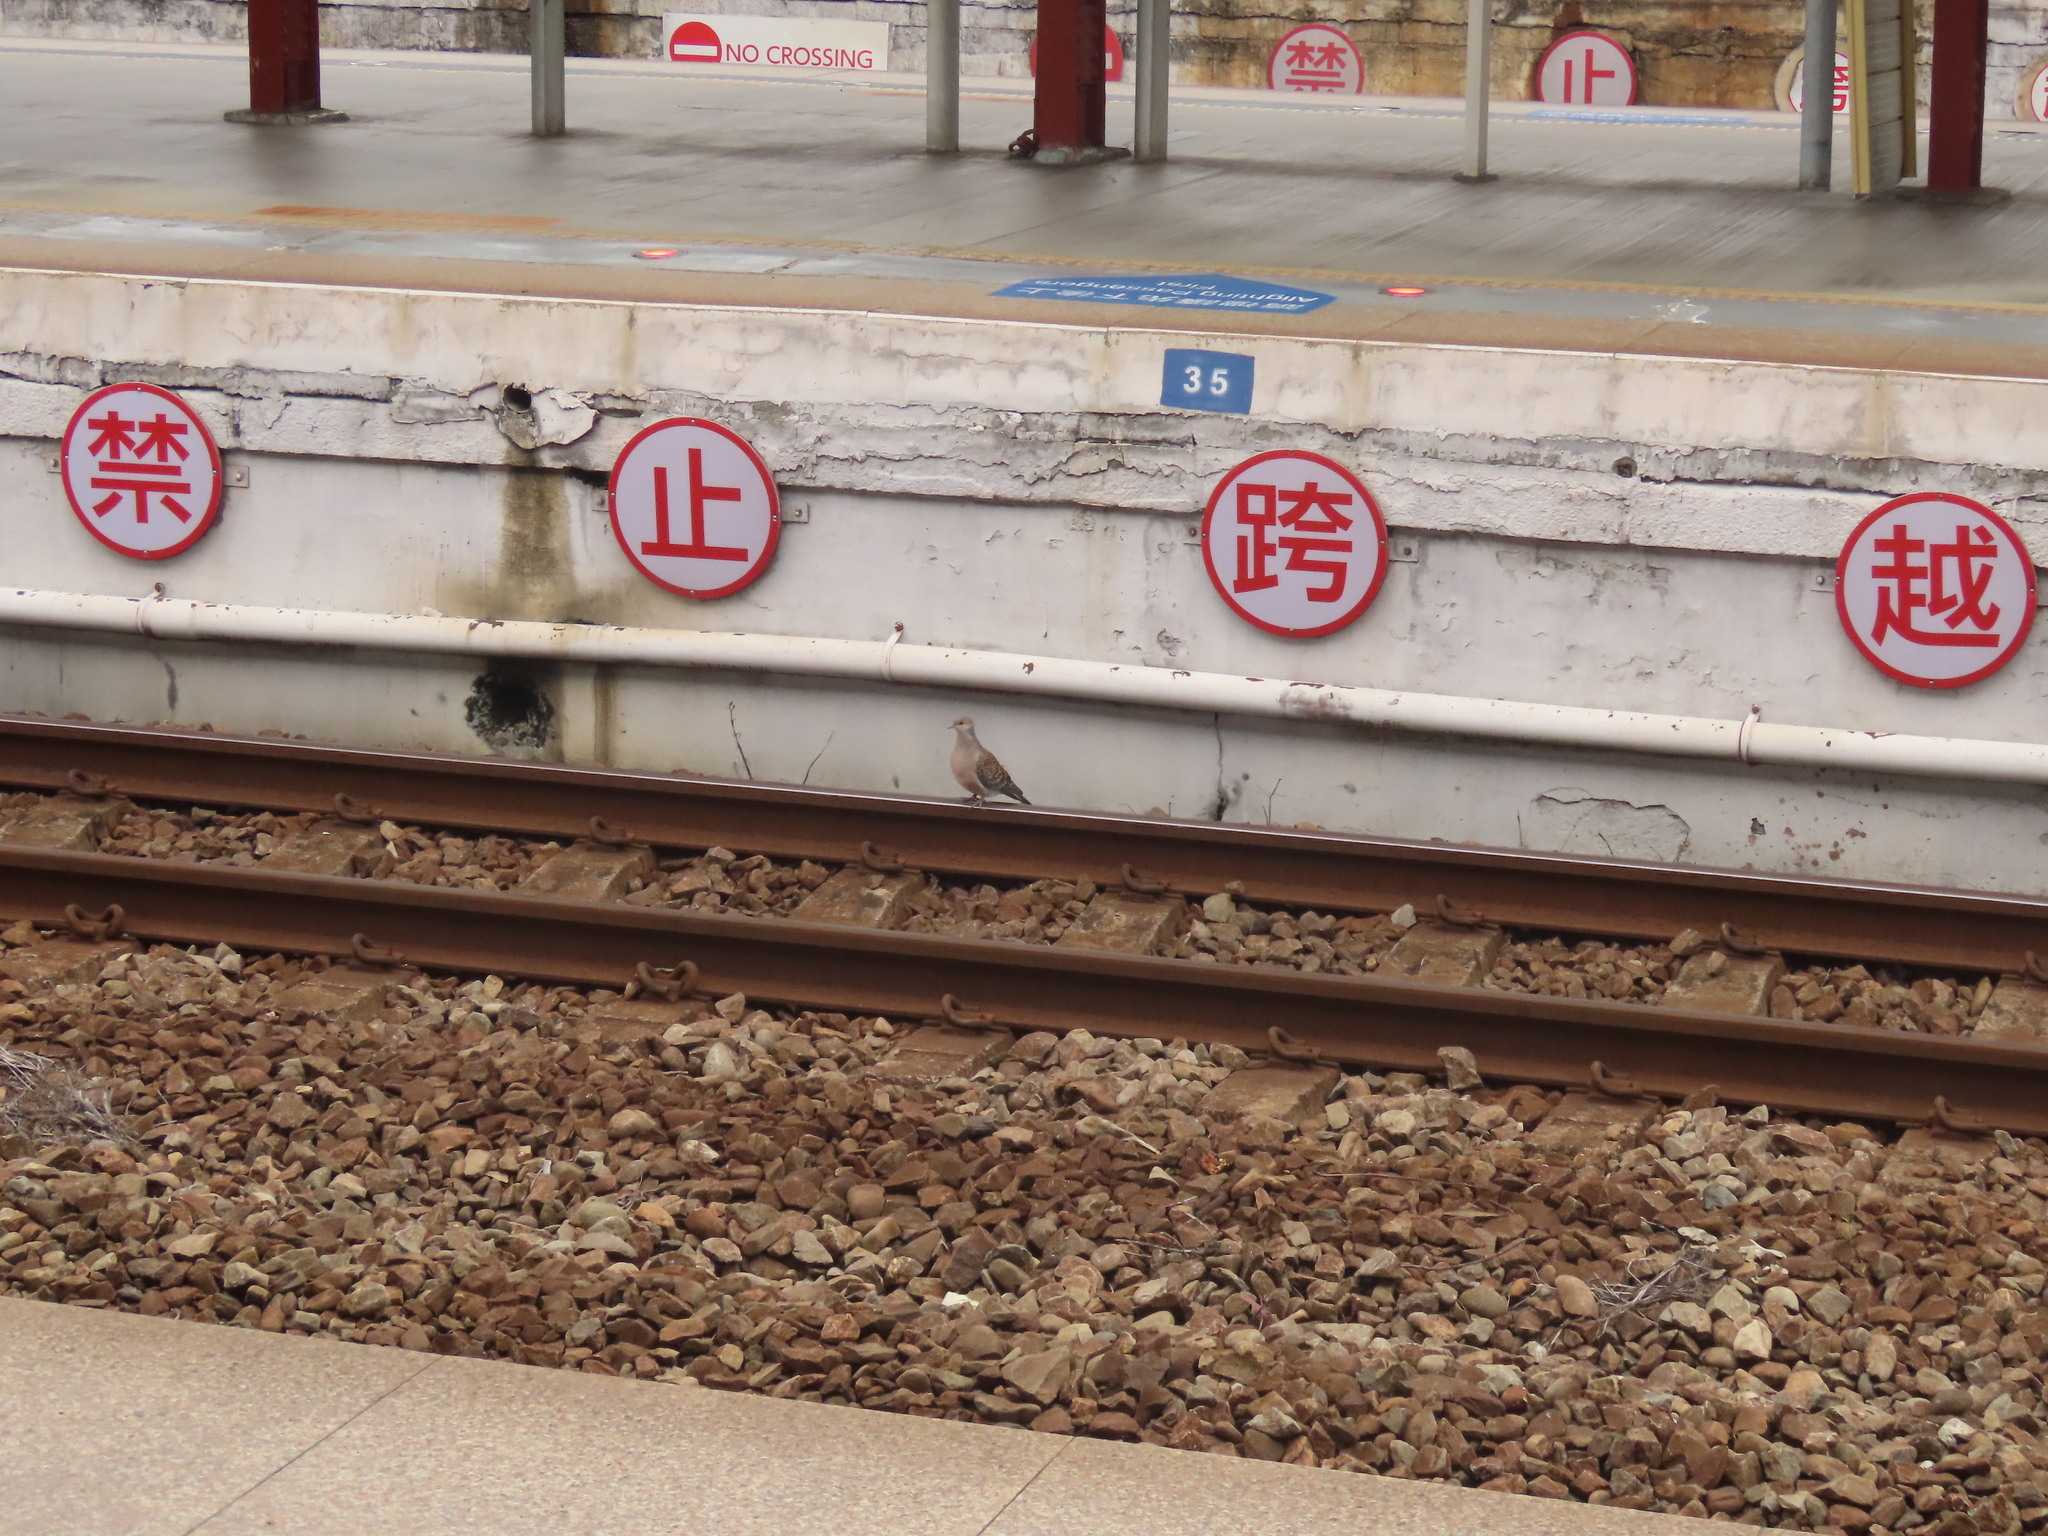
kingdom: Animalia
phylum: Chordata
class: Aves
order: Columbiformes
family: Columbidae
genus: Streptopelia
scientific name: Streptopelia orientalis
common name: Oriental turtle dove
